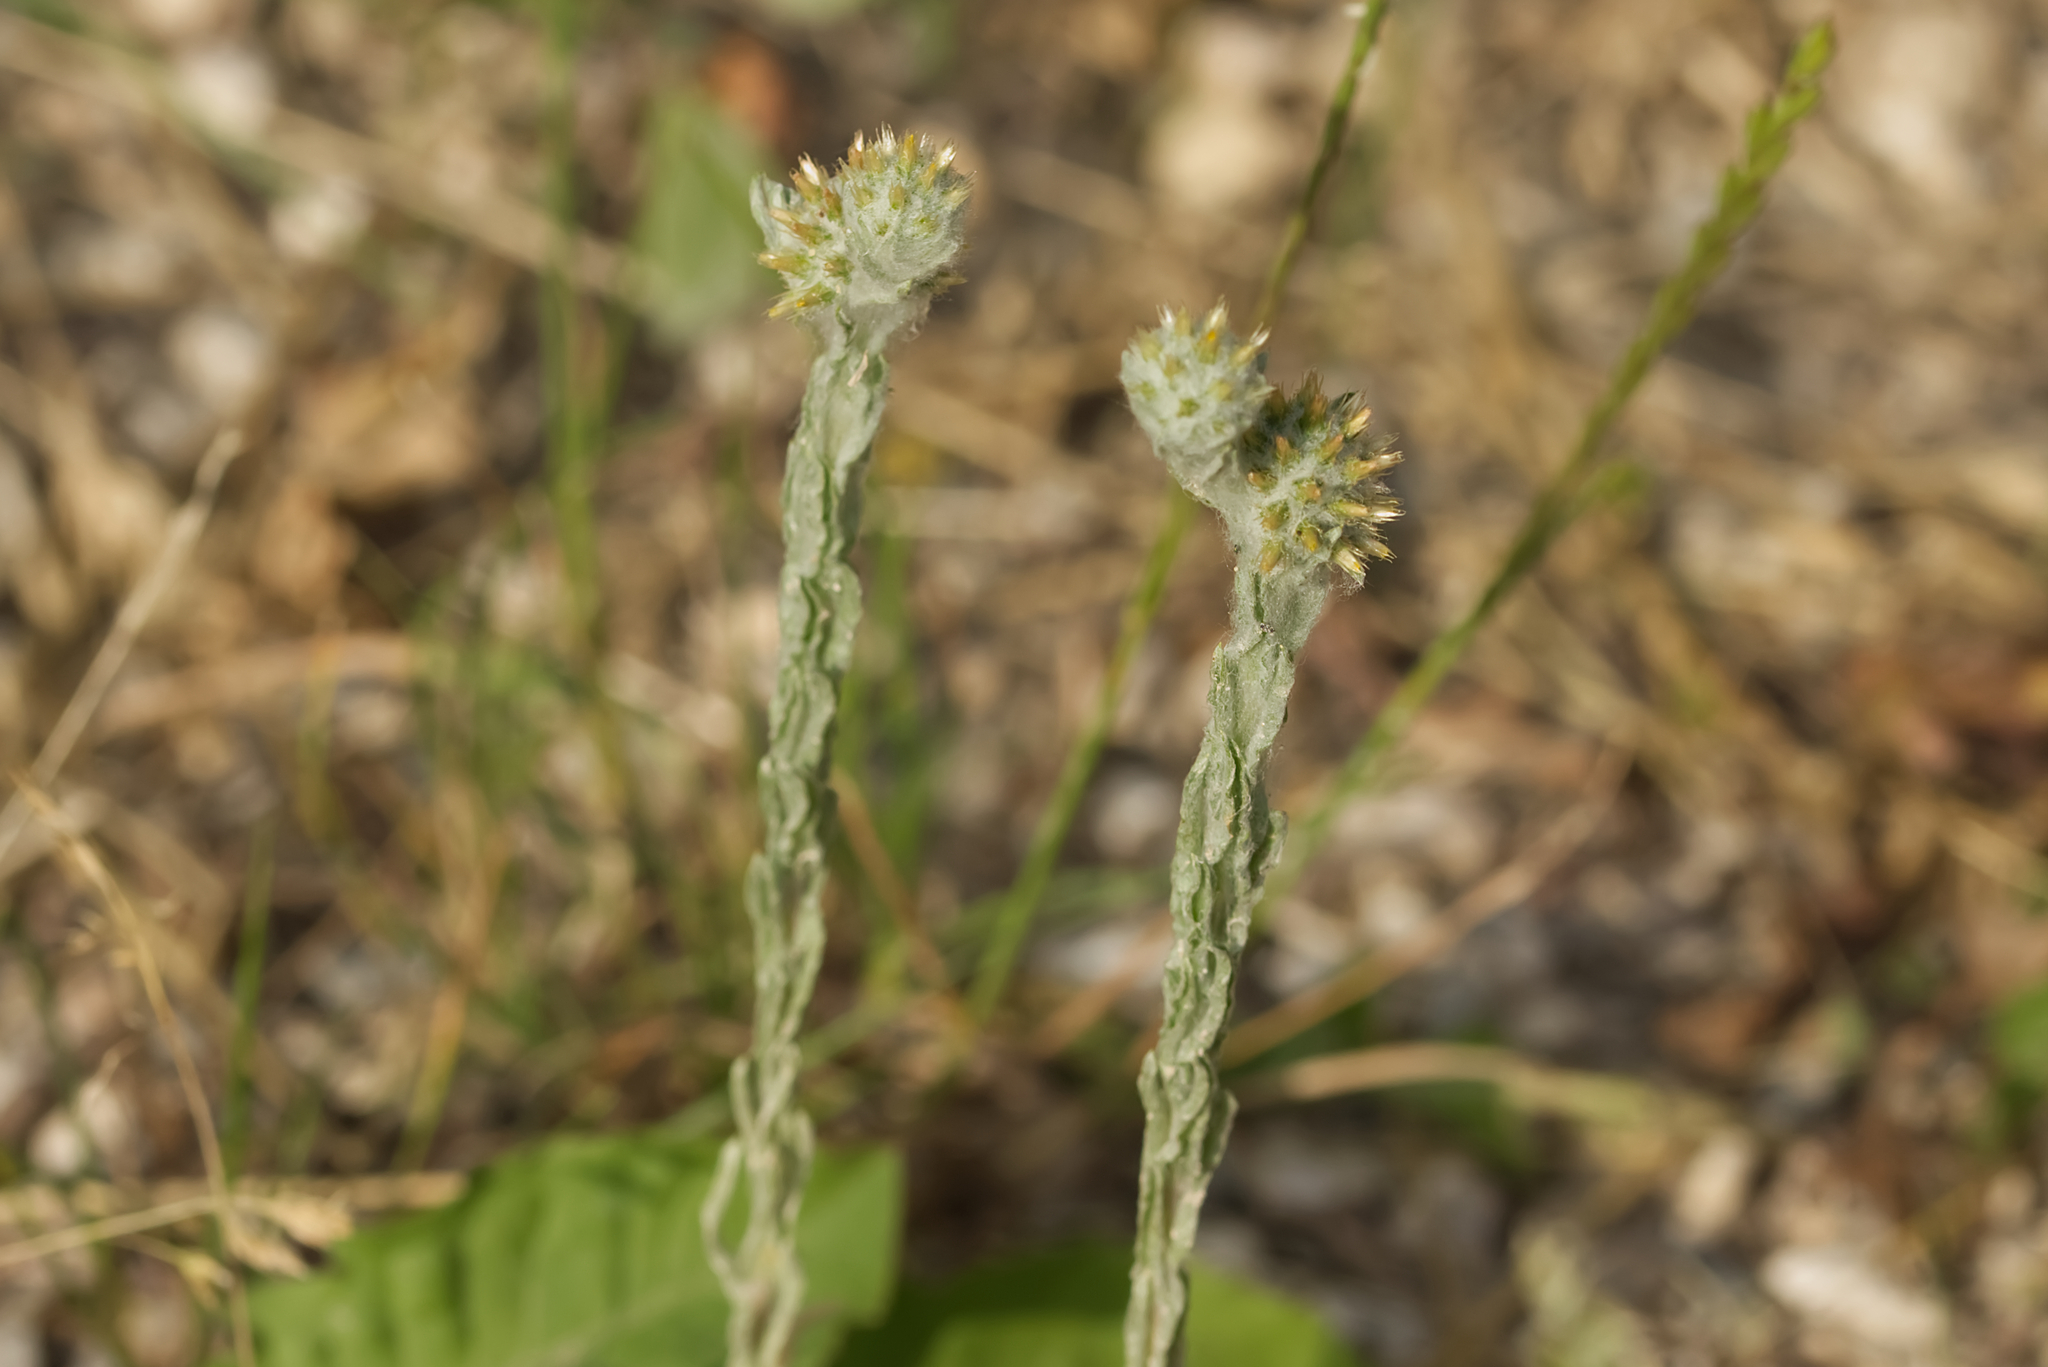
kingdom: Plantae
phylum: Tracheophyta
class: Magnoliopsida
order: Asterales
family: Asteraceae
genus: Filago
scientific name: Filago germanica
